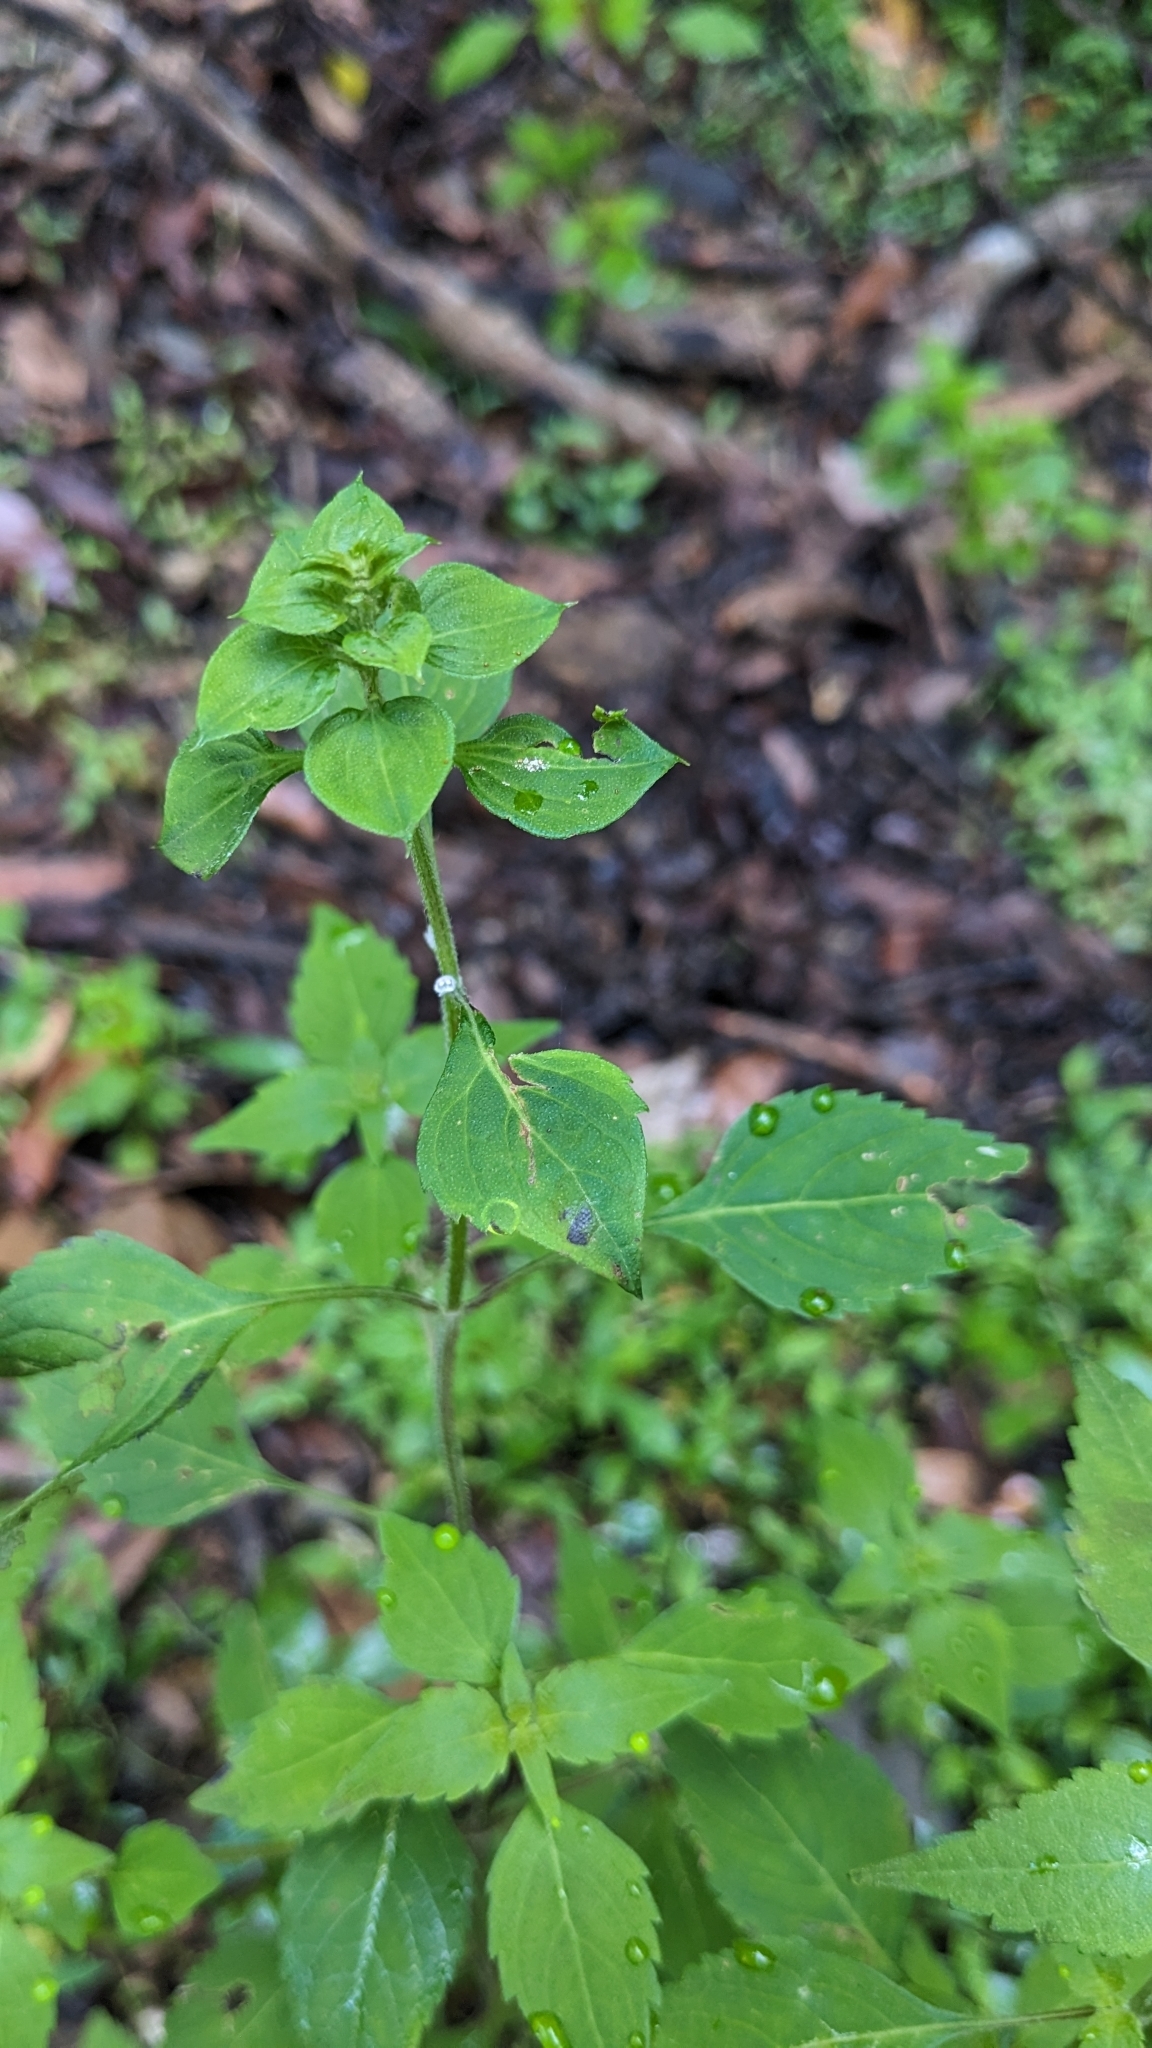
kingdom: Plantae
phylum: Tracheophyta
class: Magnoliopsida
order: Lamiales
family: Lamiaceae
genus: Mosla
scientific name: Mosla cavaleriei
